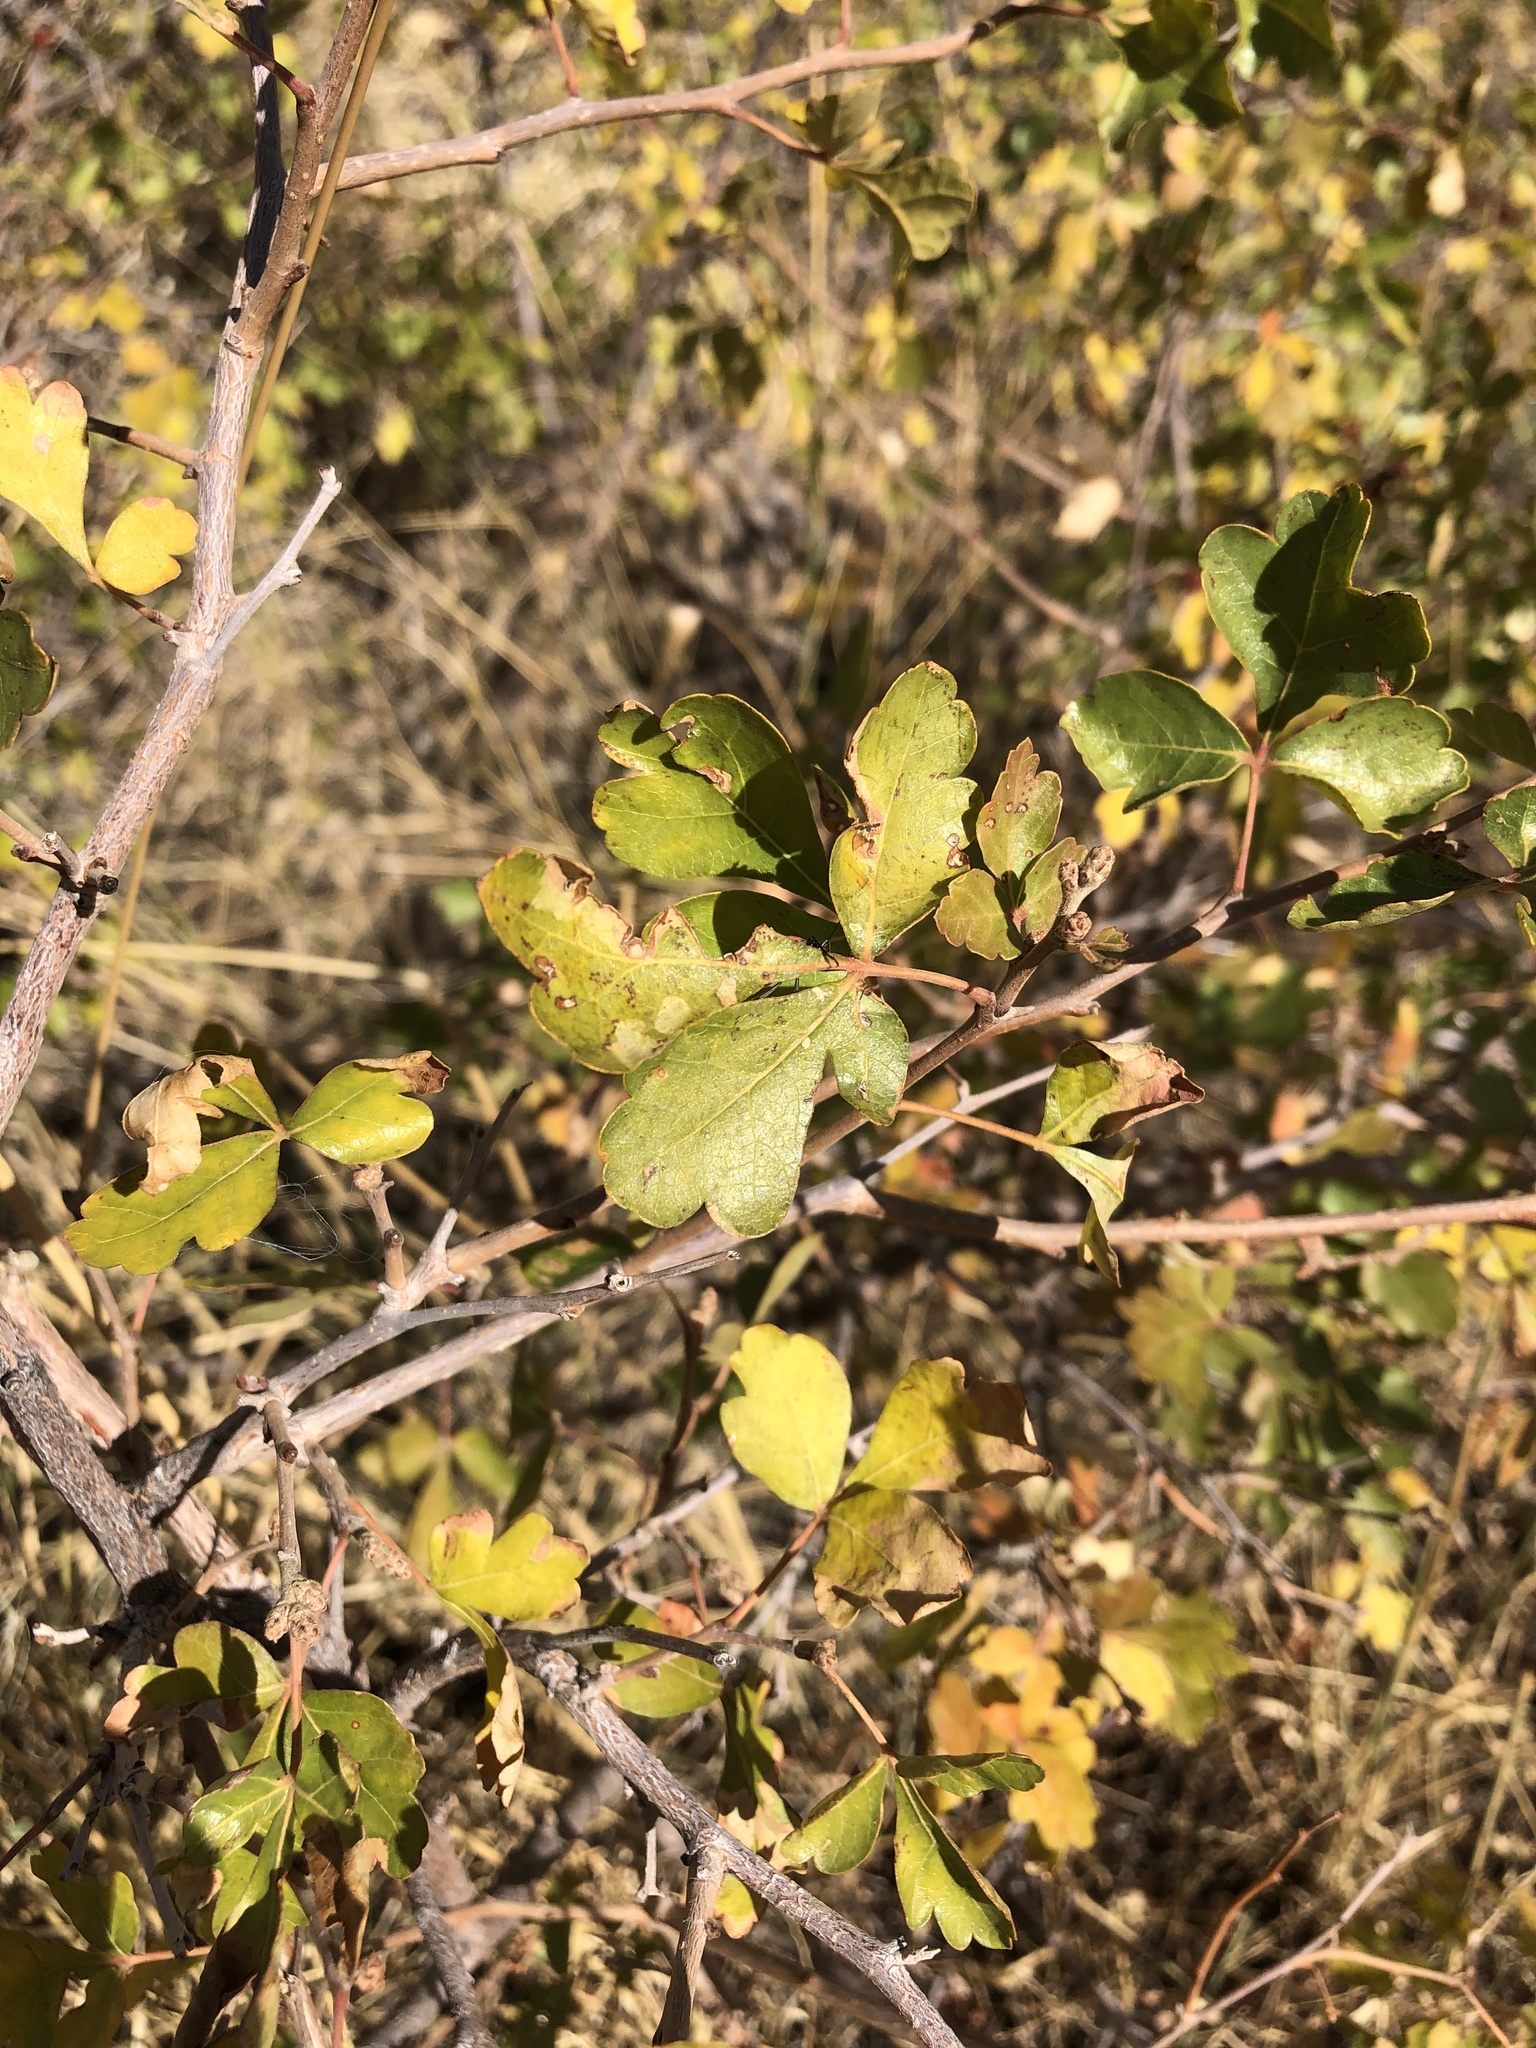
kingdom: Plantae
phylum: Tracheophyta
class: Magnoliopsida
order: Sapindales
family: Anacardiaceae
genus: Rhus
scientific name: Rhus trilobata
